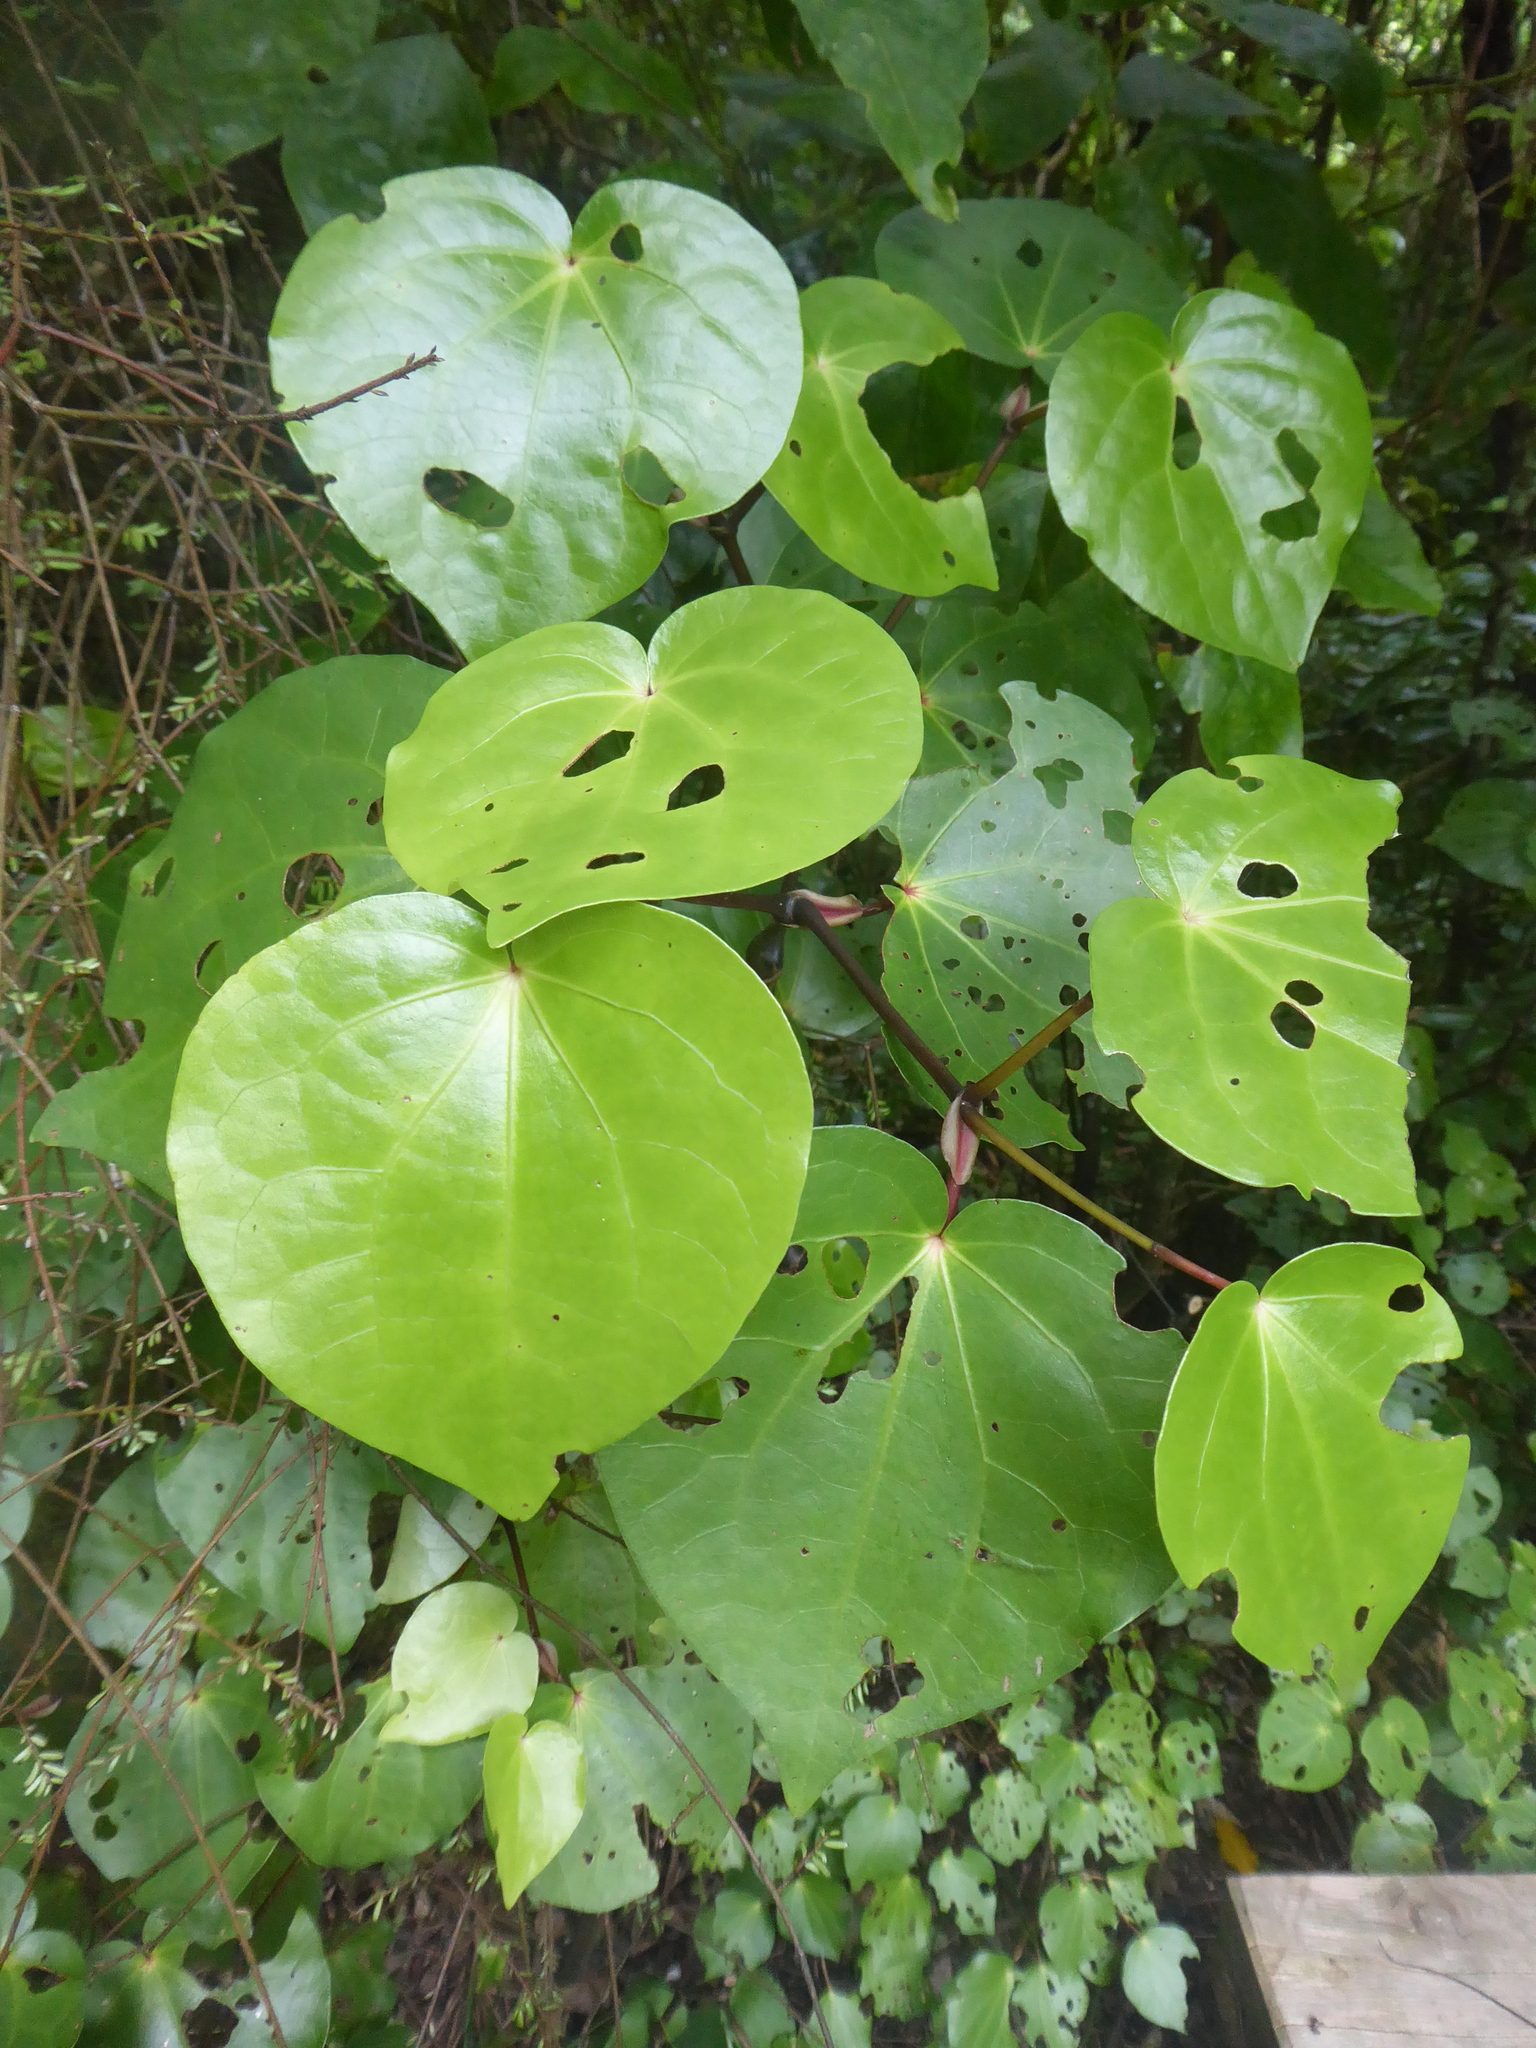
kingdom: Plantae
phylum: Tracheophyta
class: Magnoliopsida
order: Piperales
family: Piperaceae
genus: Macropiper
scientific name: Macropiper excelsum
